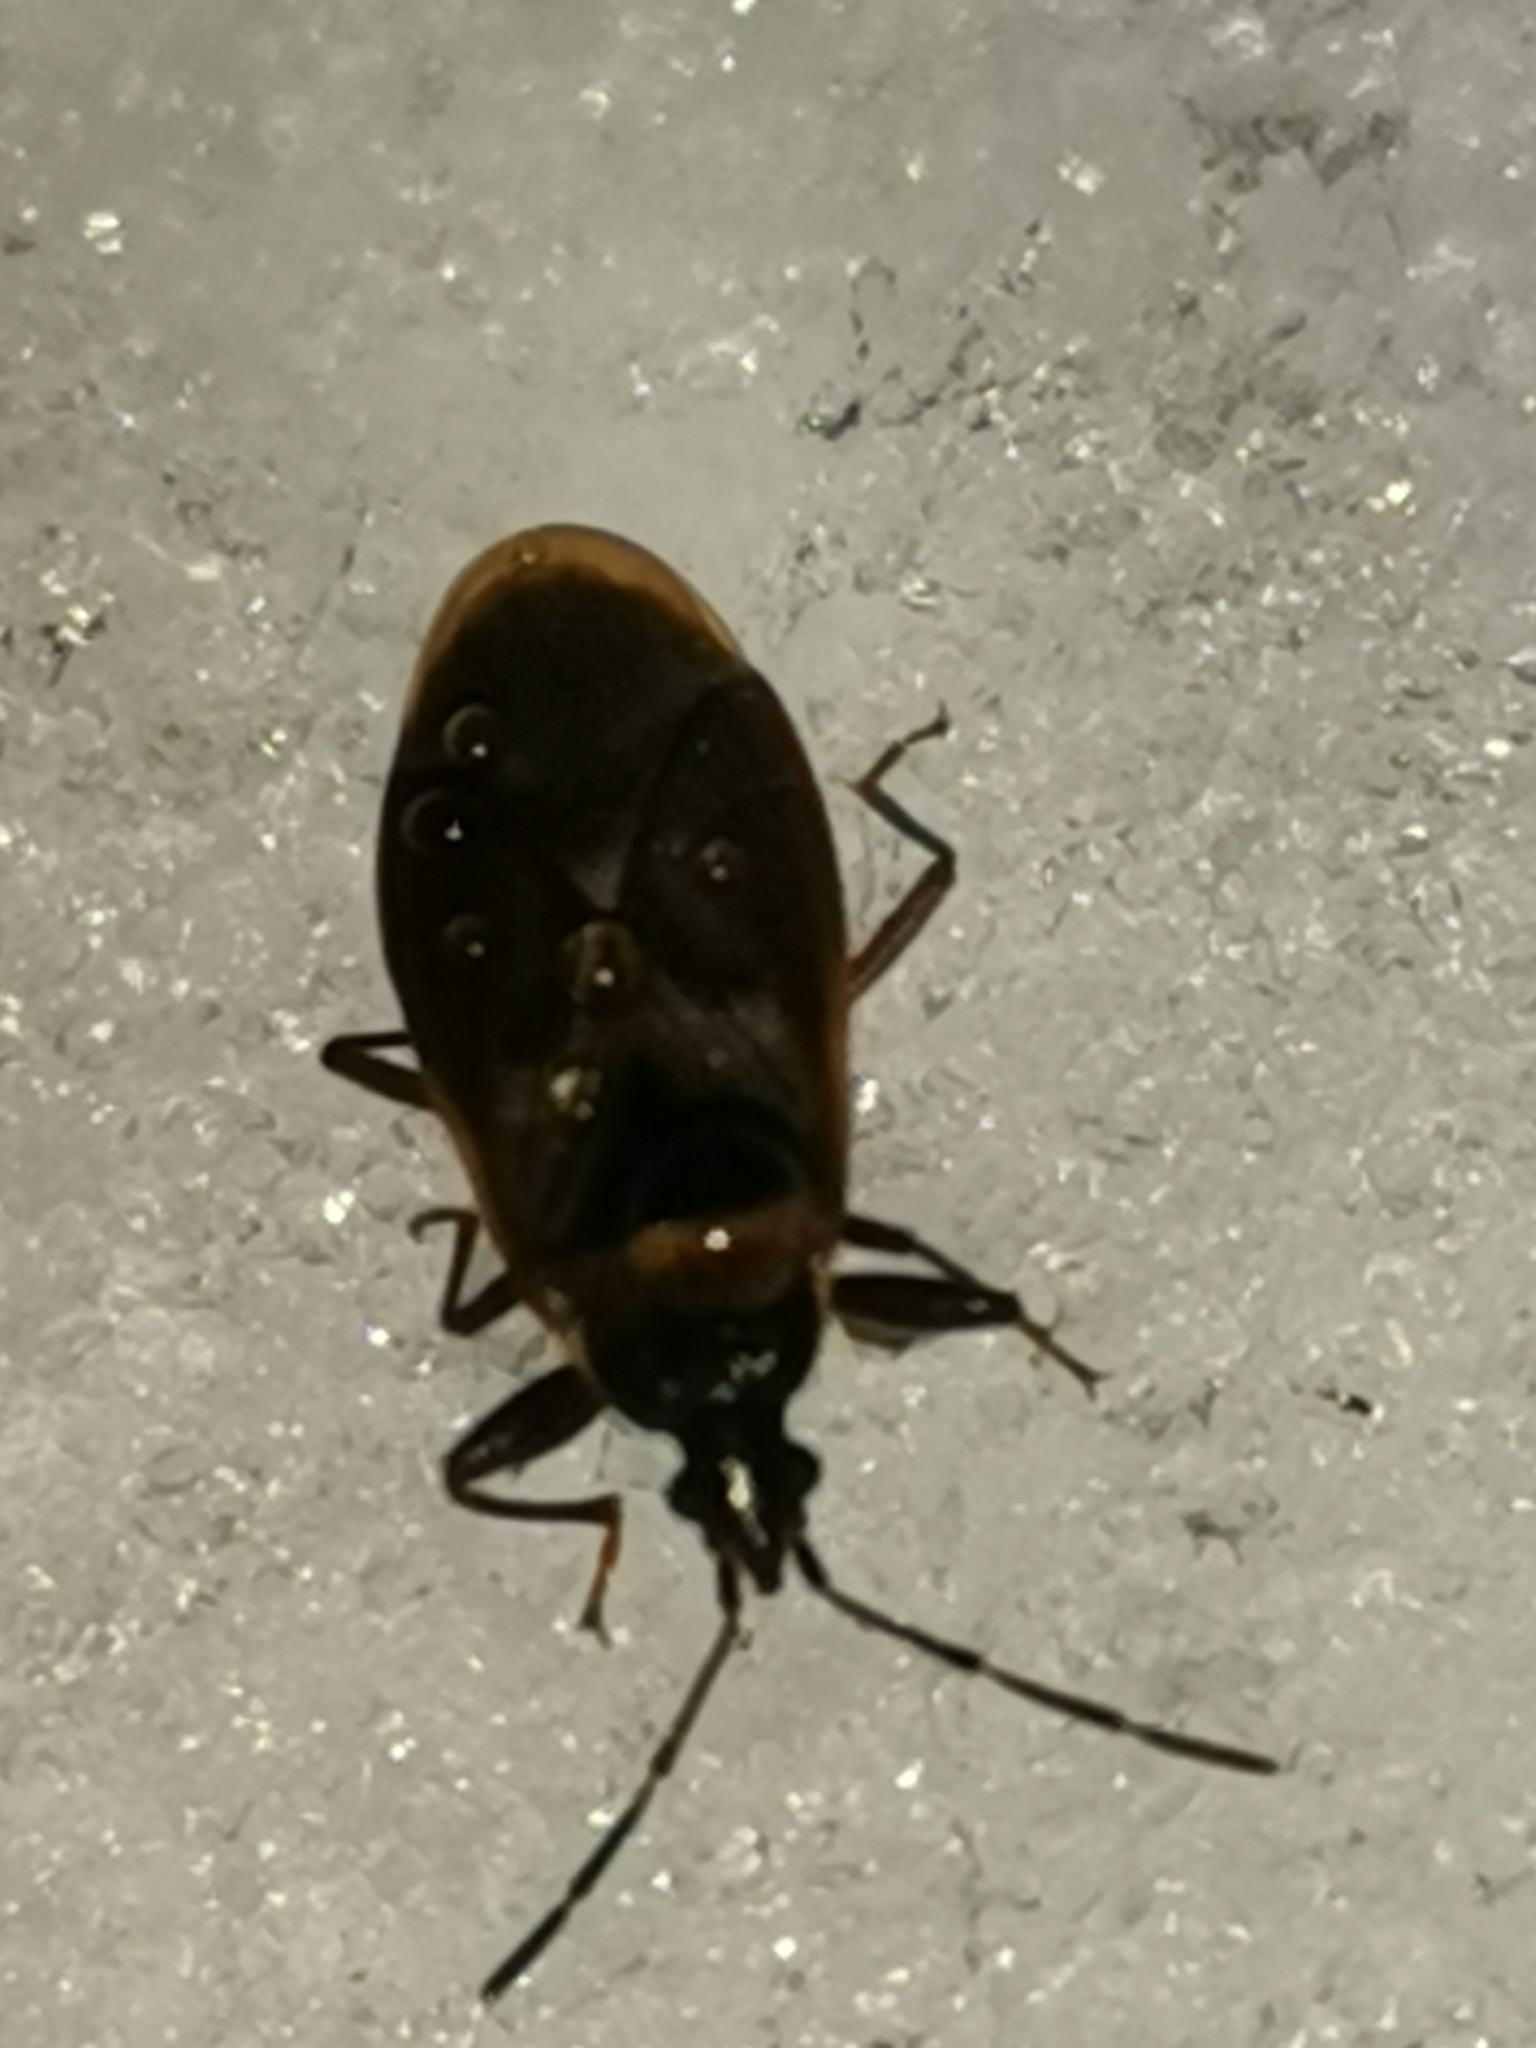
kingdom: Animalia
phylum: Arthropoda
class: Insecta
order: Hemiptera
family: Rhyparochromidae
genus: Gastrodes
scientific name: Gastrodes abietum
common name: Spruce cone bug
